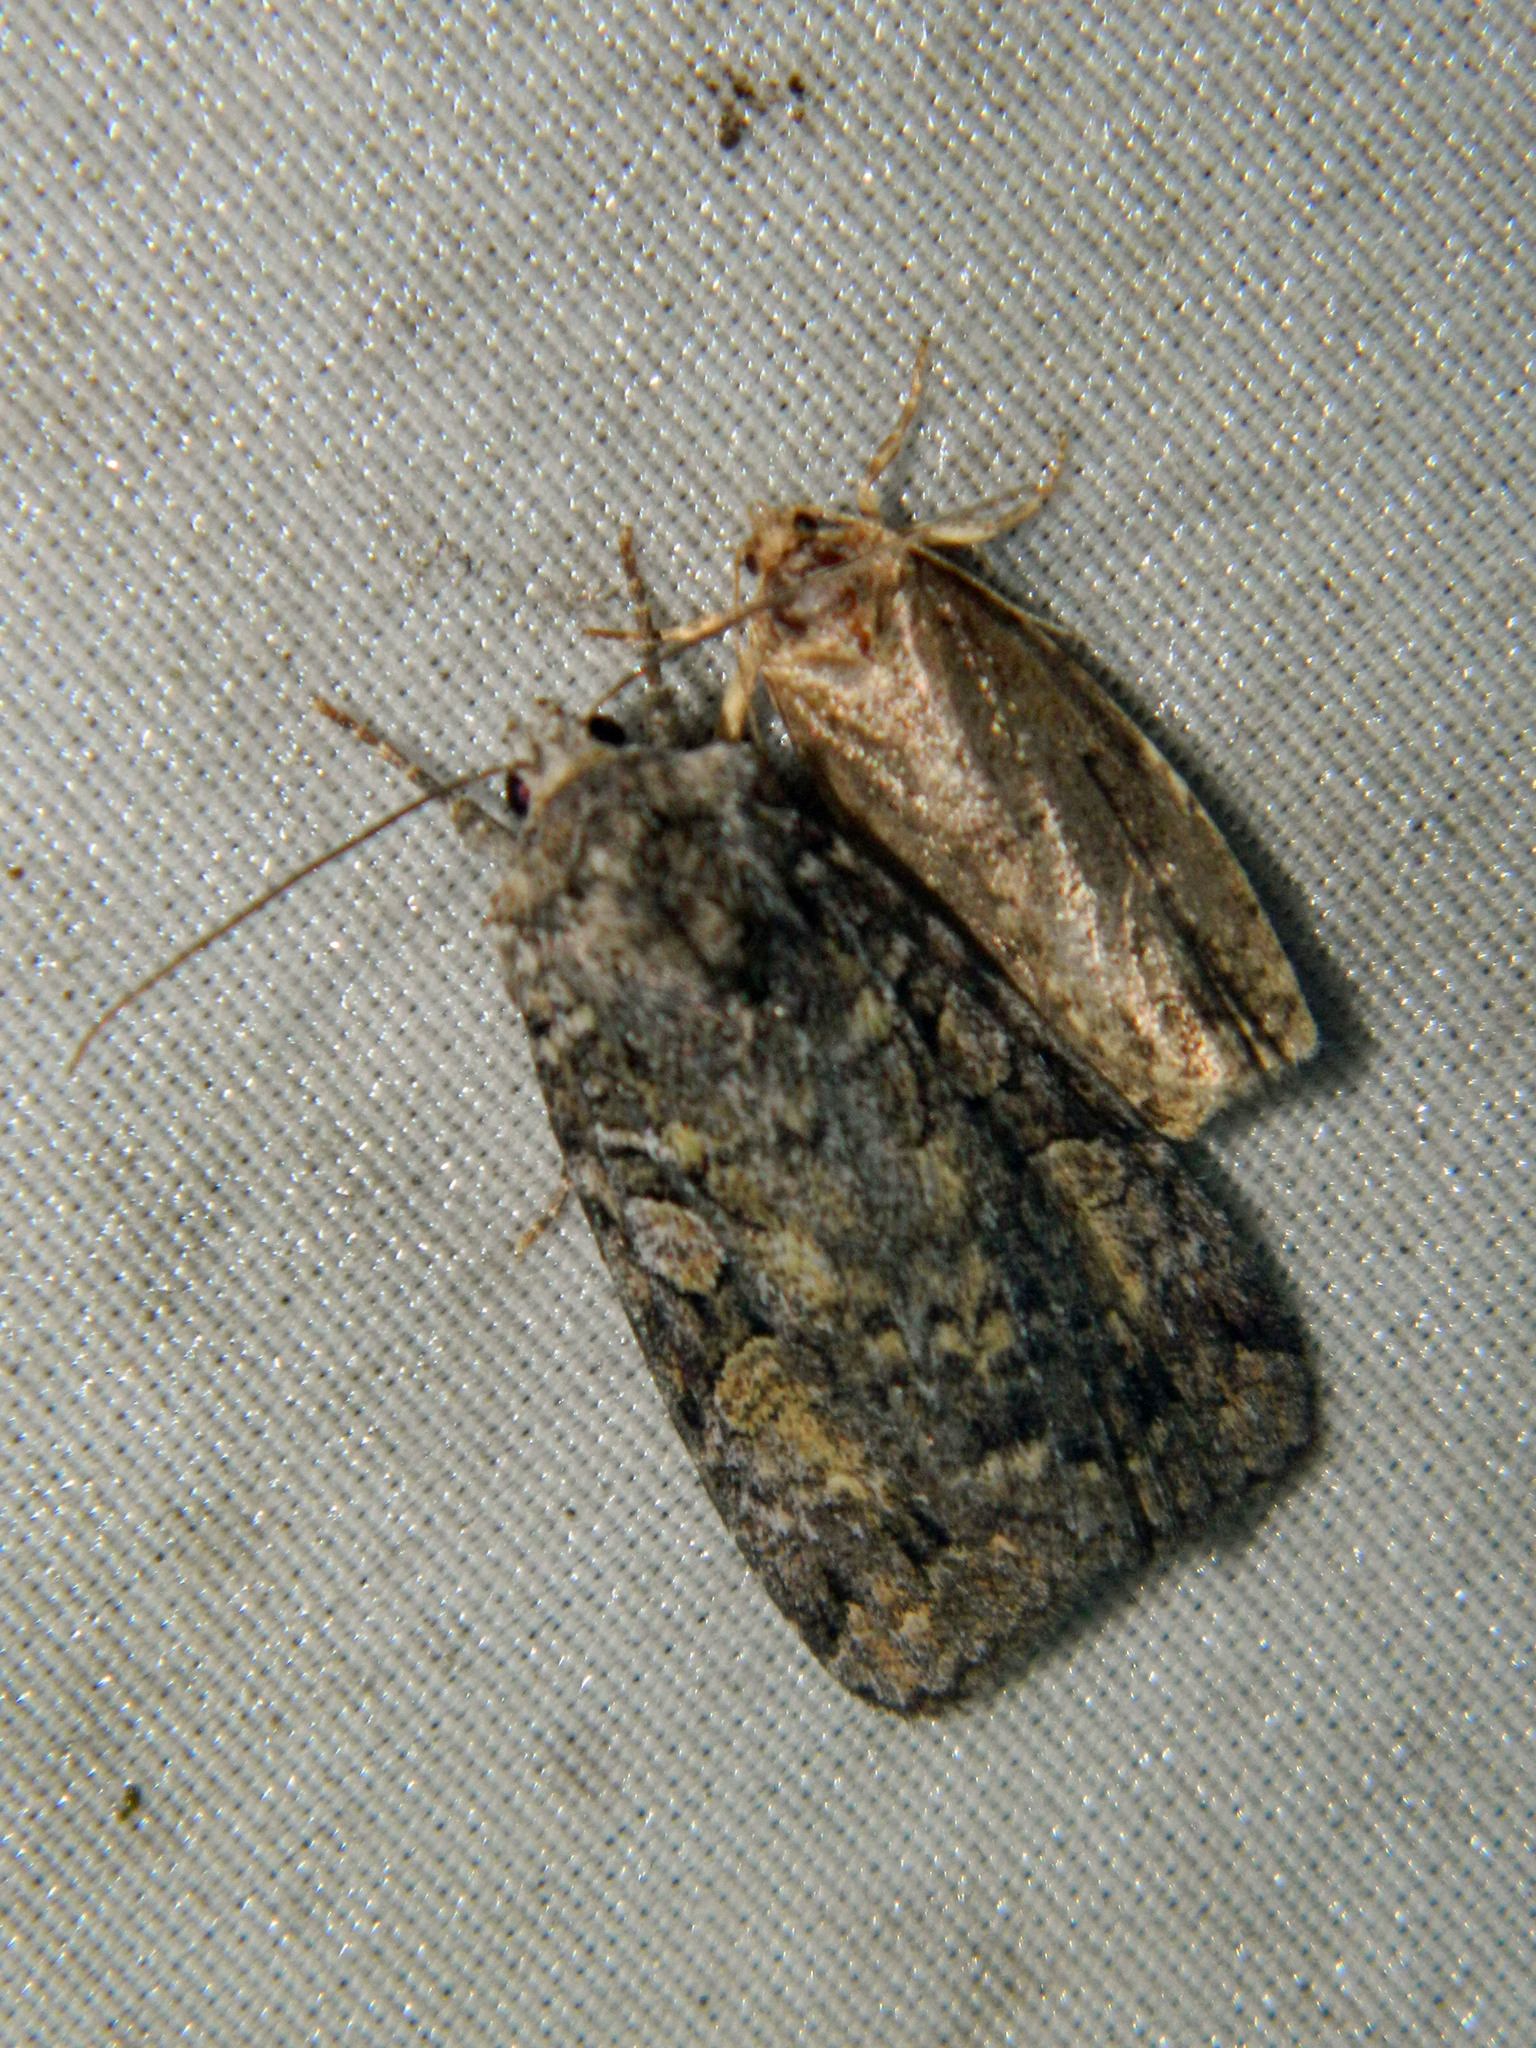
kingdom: Animalia
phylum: Arthropoda
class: Insecta
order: Lepidoptera
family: Noctuidae
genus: Anaplectoides
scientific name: Anaplectoides prasina
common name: Green arches
